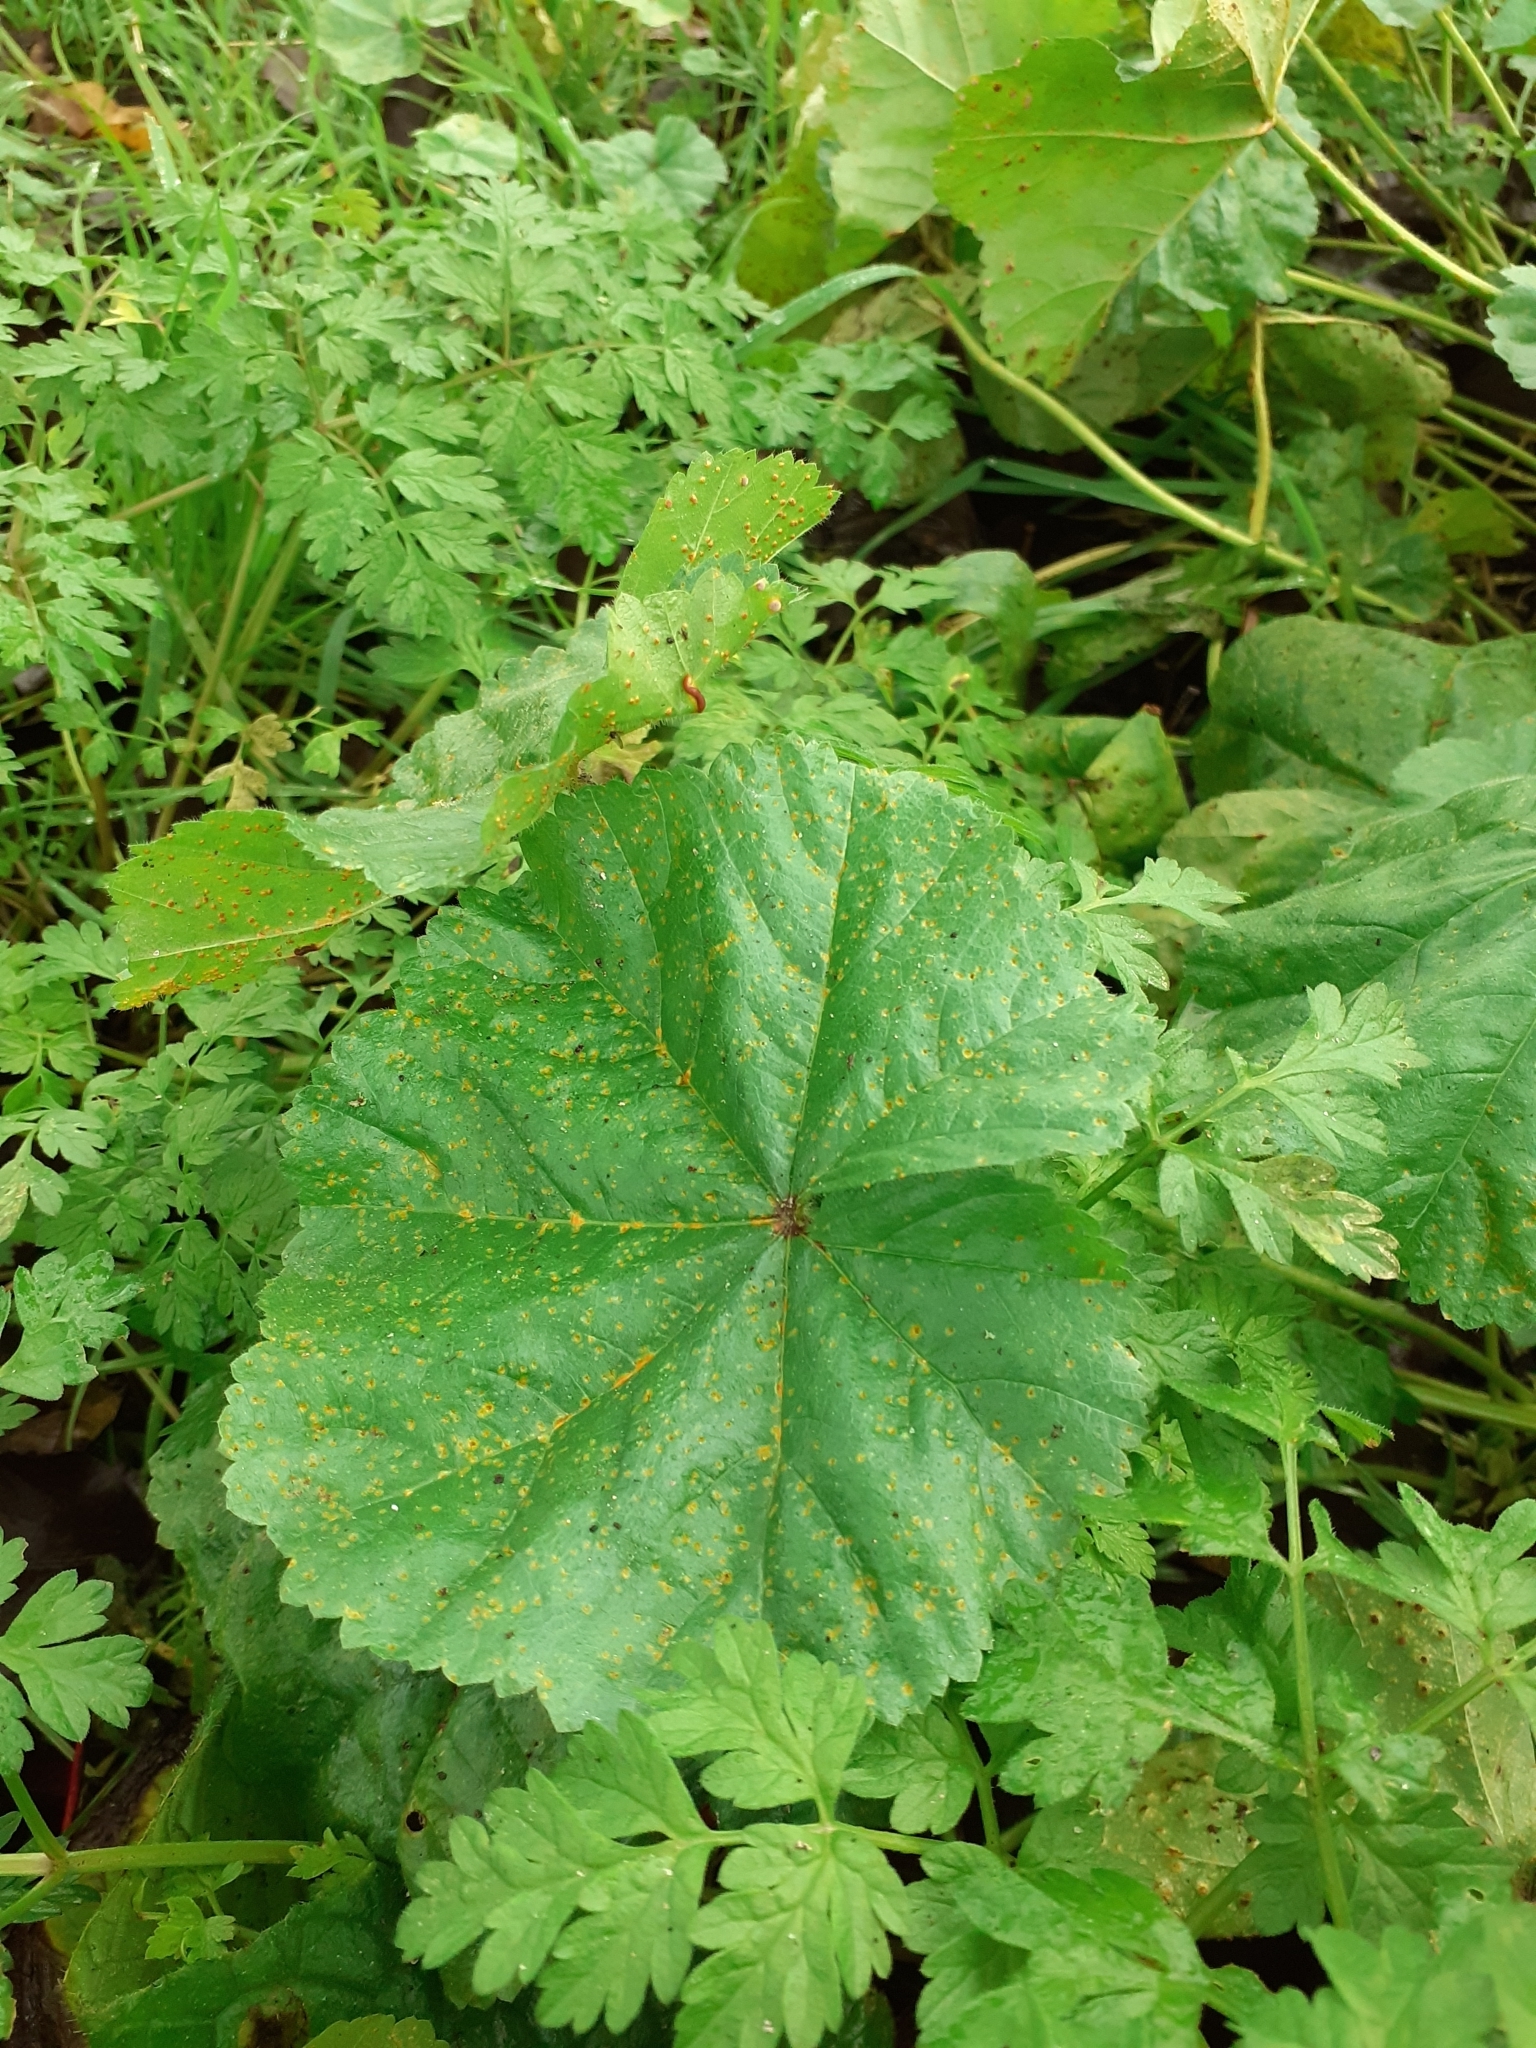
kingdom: Fungi
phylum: Basidiomycota
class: Pucciniomycetes
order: Pucciniales
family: Pucciniaceae
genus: Puccinia
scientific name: Puccinia malvacearum
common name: Hollyhock rust
